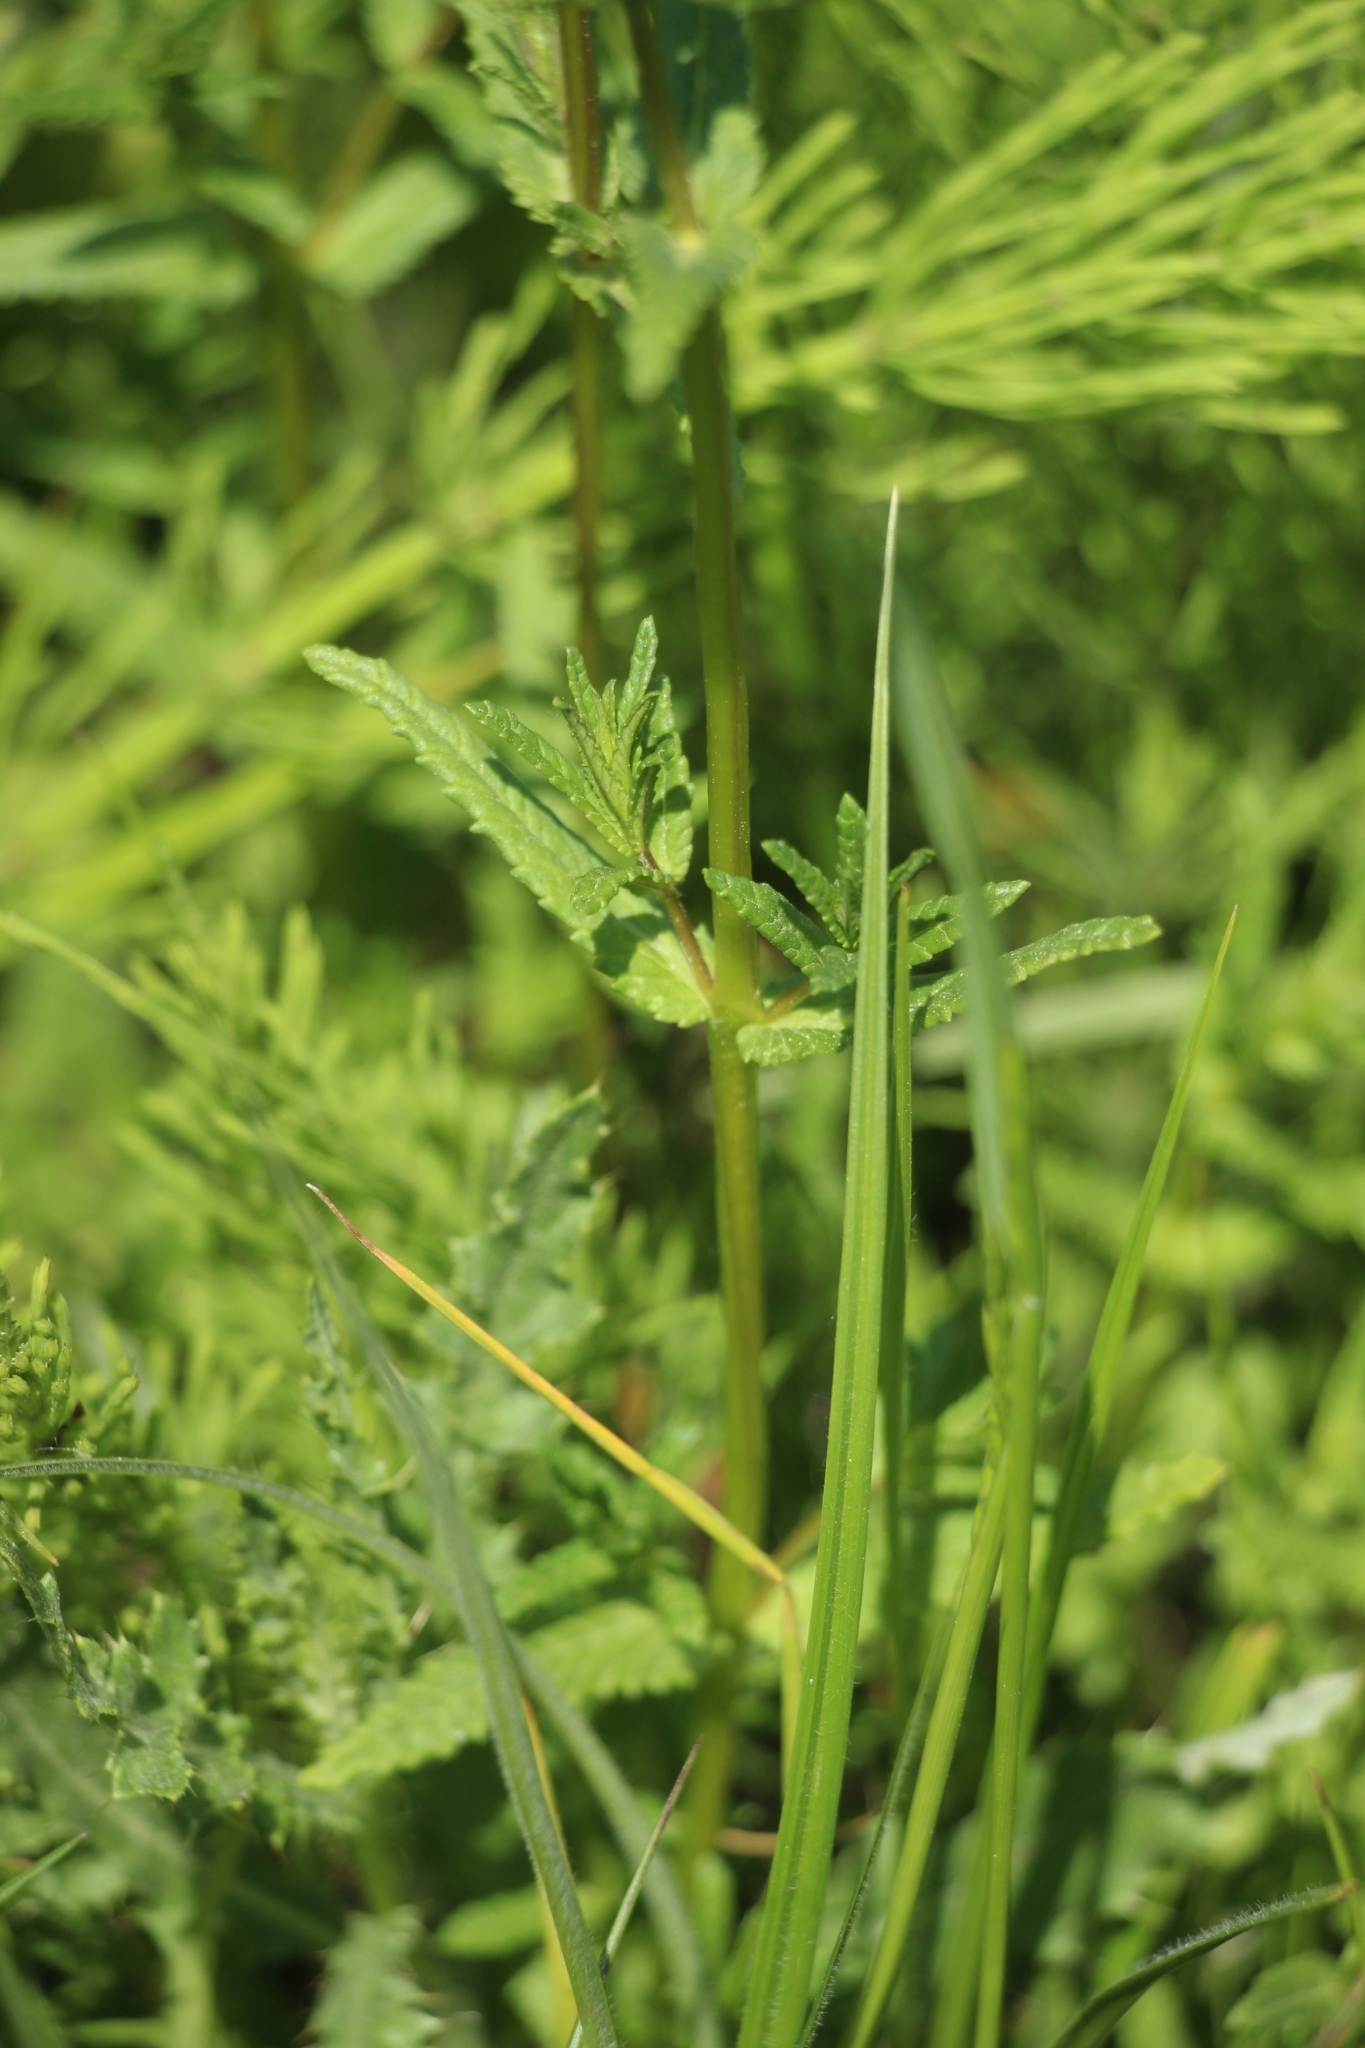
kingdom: Plantae
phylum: Tracheophyta
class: Magnoliopsida
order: Lamiales
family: Orobanchaceae
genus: Rhinanthus
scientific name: Rhinanthus minor
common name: Yellow-rattle
